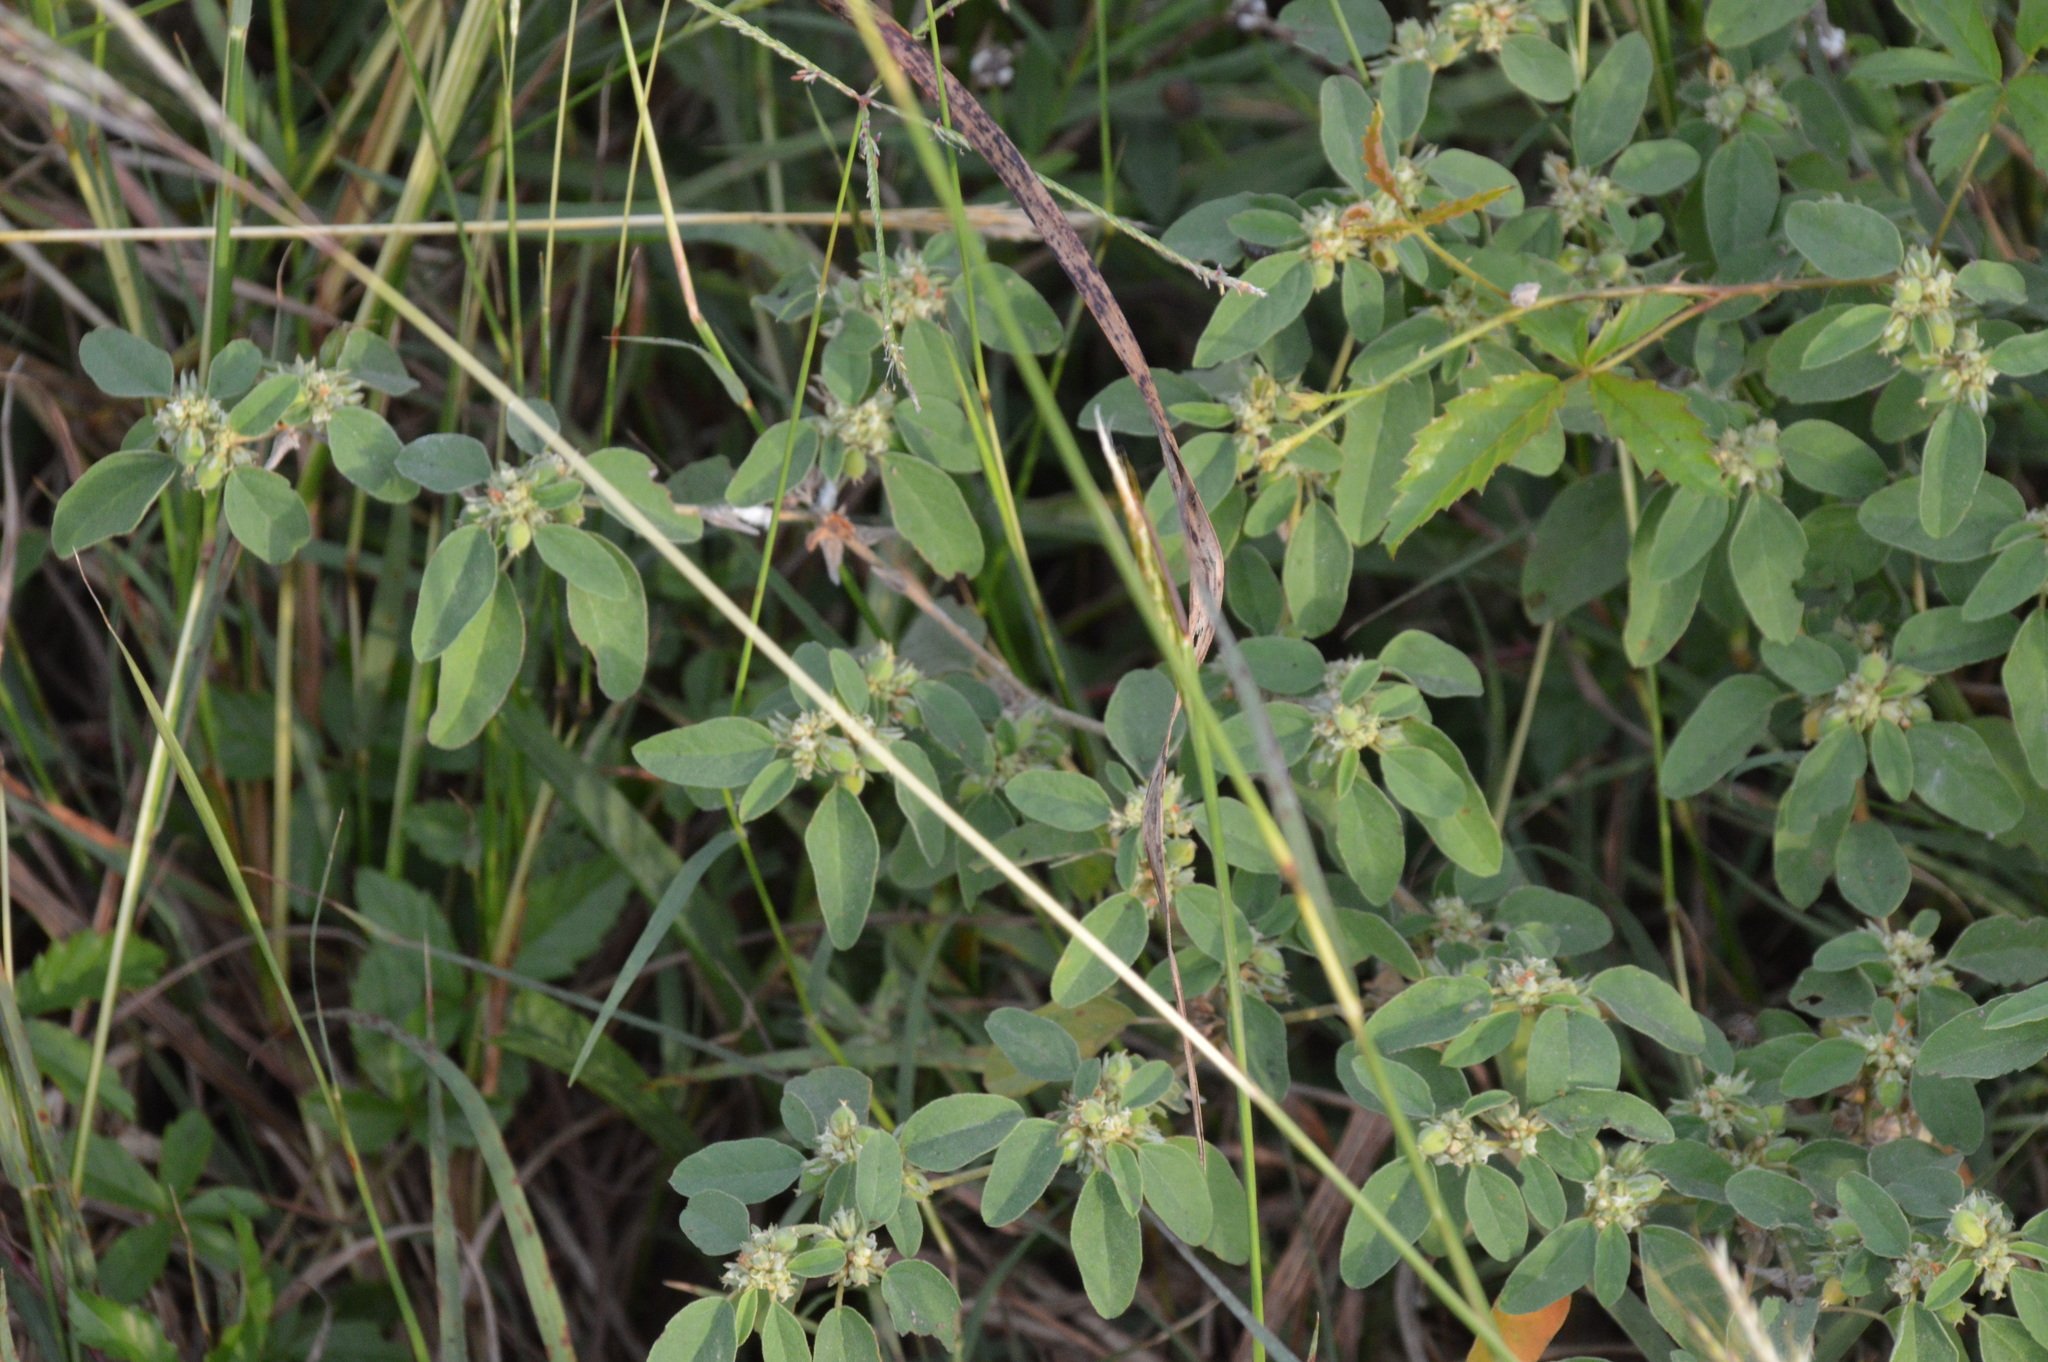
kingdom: Plantae
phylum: Tracheophyta
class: Magnoliopsida
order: Malpighiales
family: Euphorbiaceae
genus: Croton
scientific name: Croton monanthogynus
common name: One-seed croton
